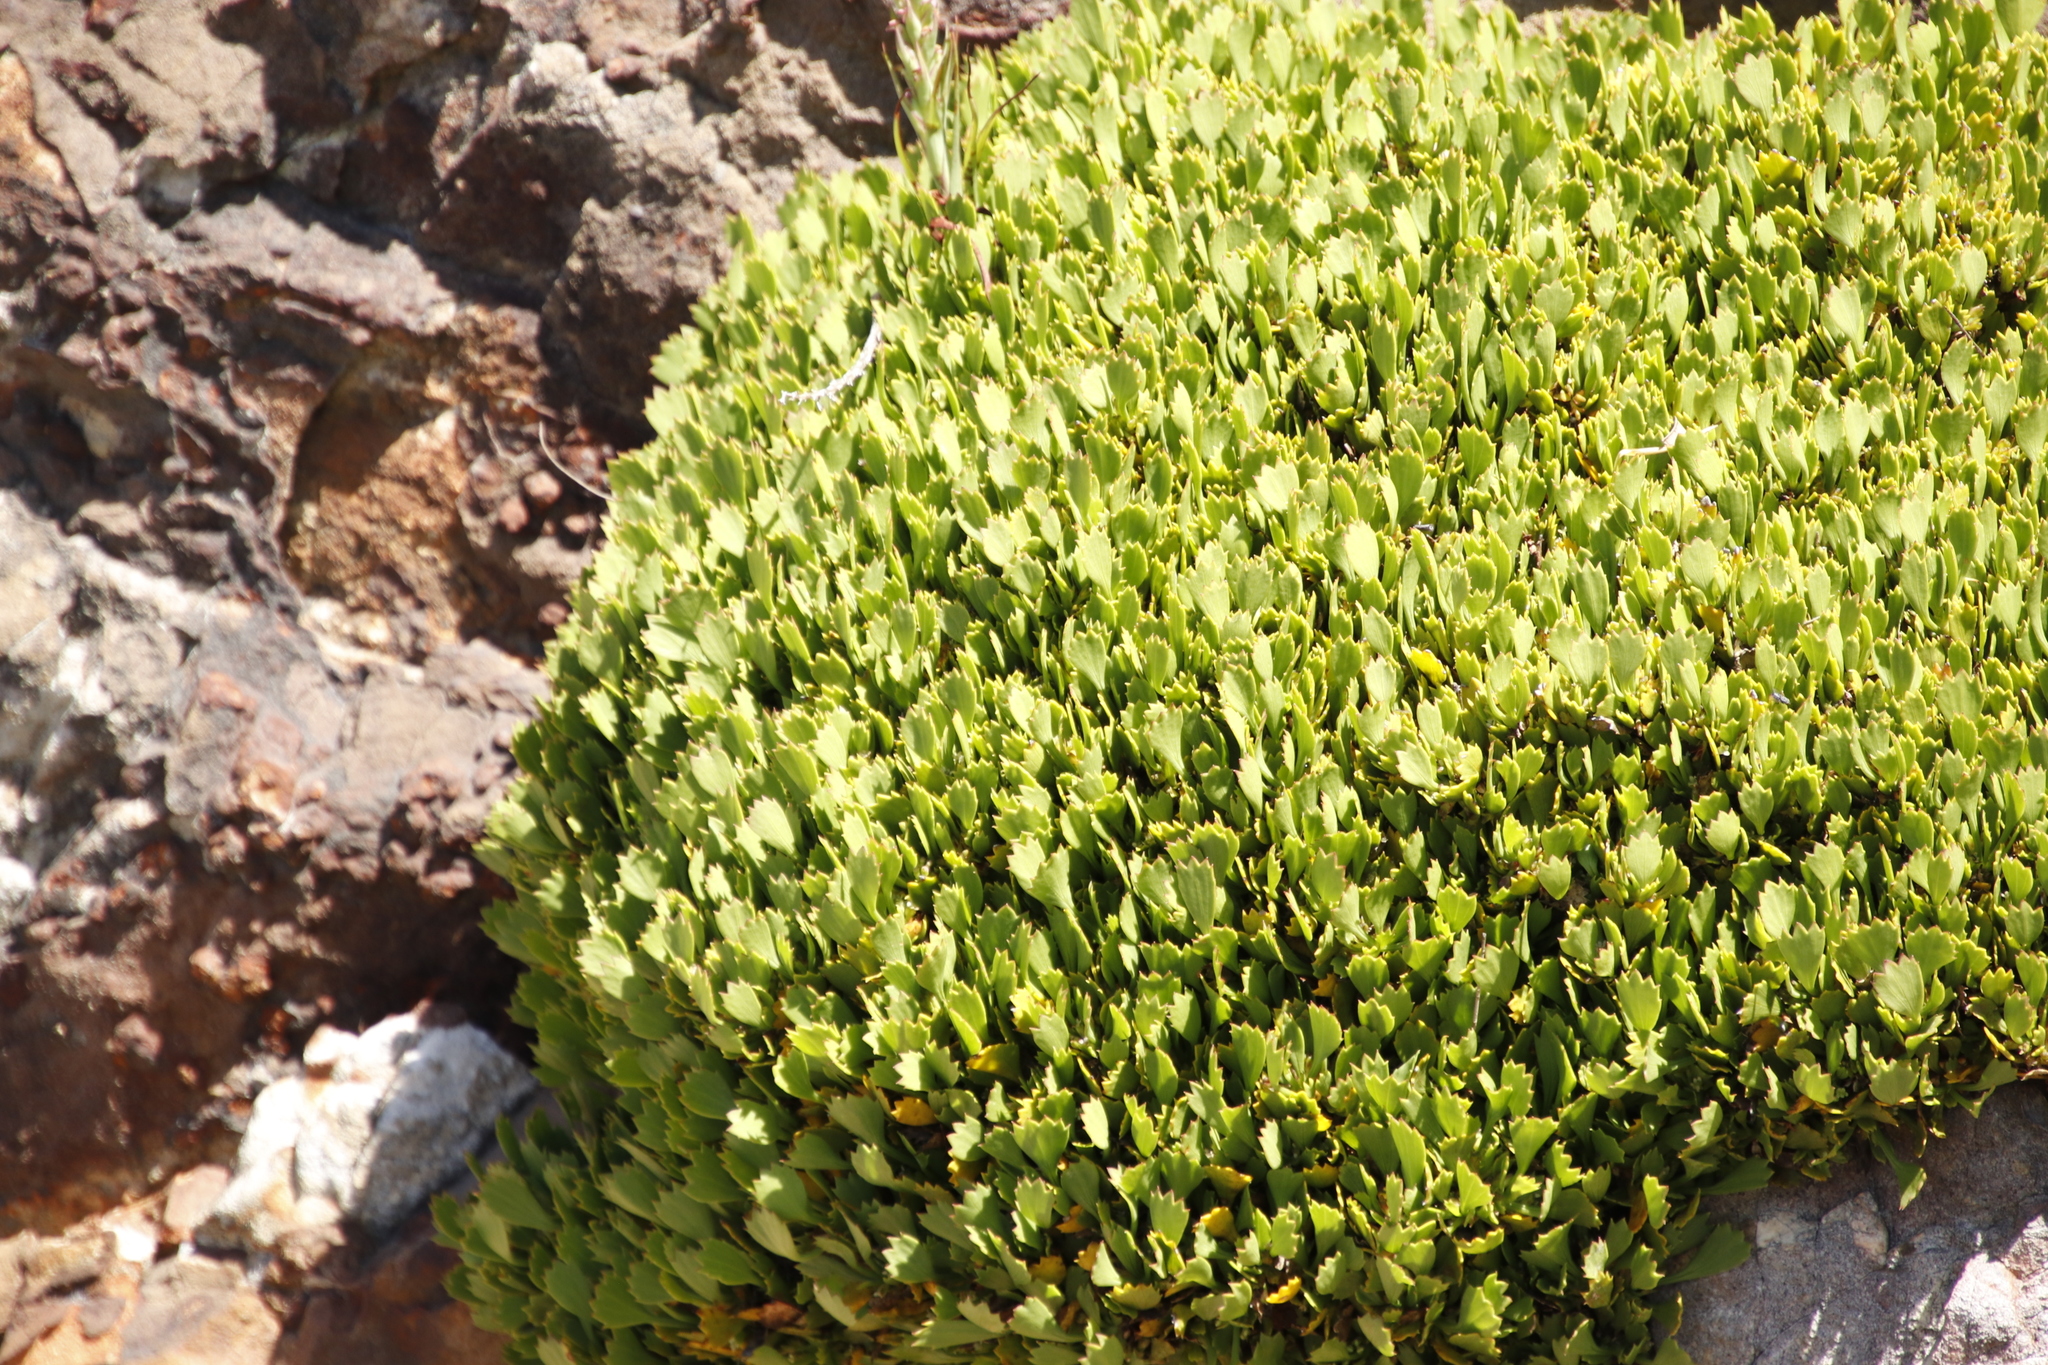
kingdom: Plantae
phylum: Tracheophyta
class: Magnoliopsida
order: Apiales
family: Apiaceae
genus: Centella
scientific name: Centella triloba
